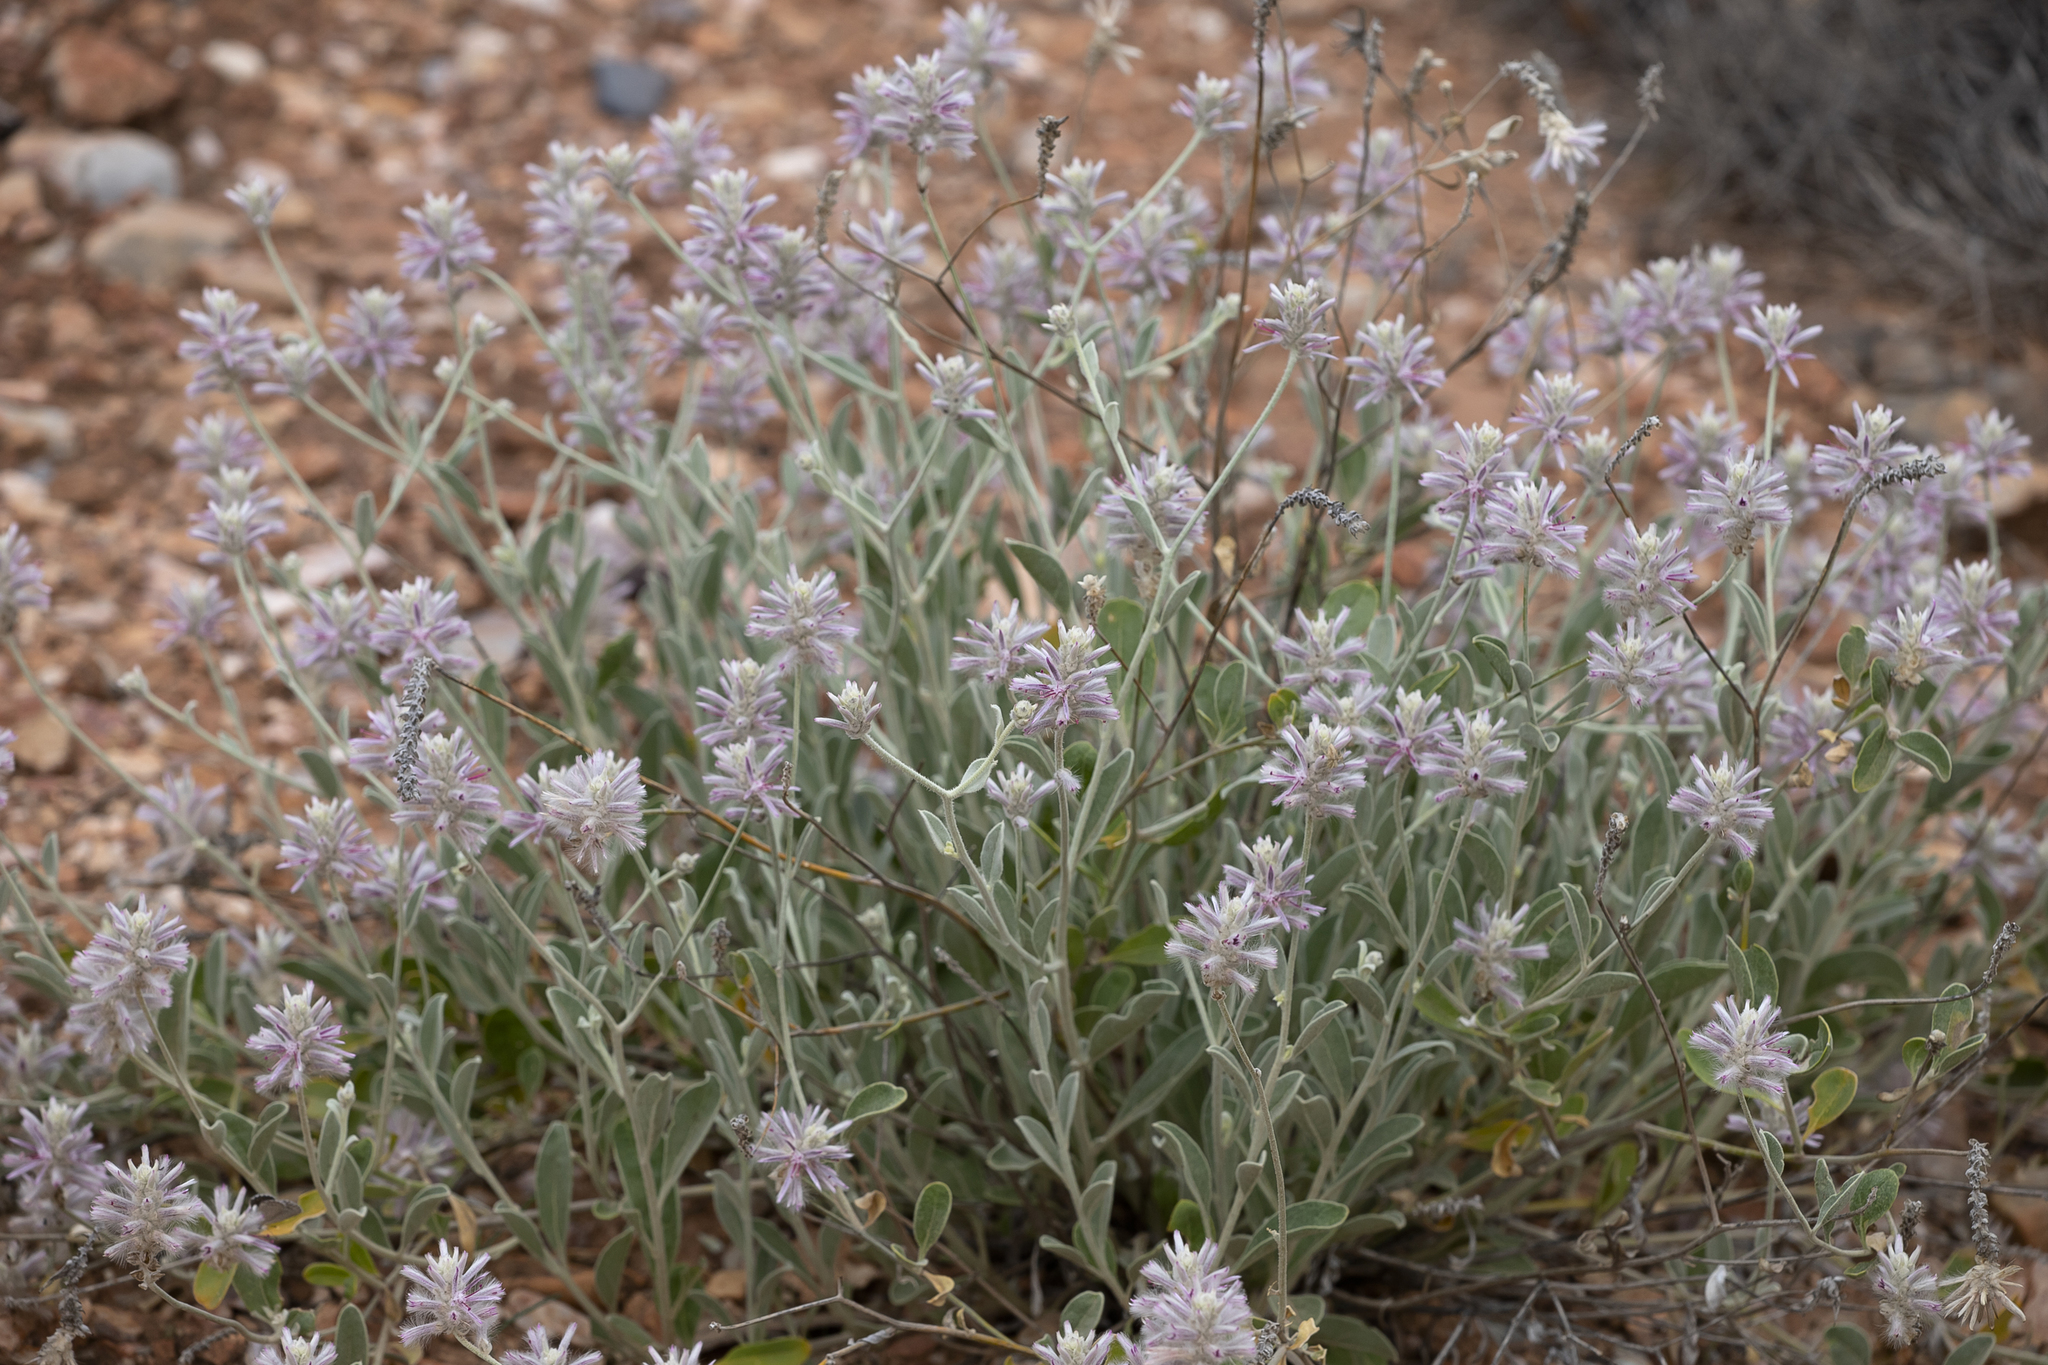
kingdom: Plantae
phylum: Tracheophyta
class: Magnoliopsida
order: Caryophyllales
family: Amaranthaceae
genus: Ptilotus
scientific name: Ptilotus sessilifolius
